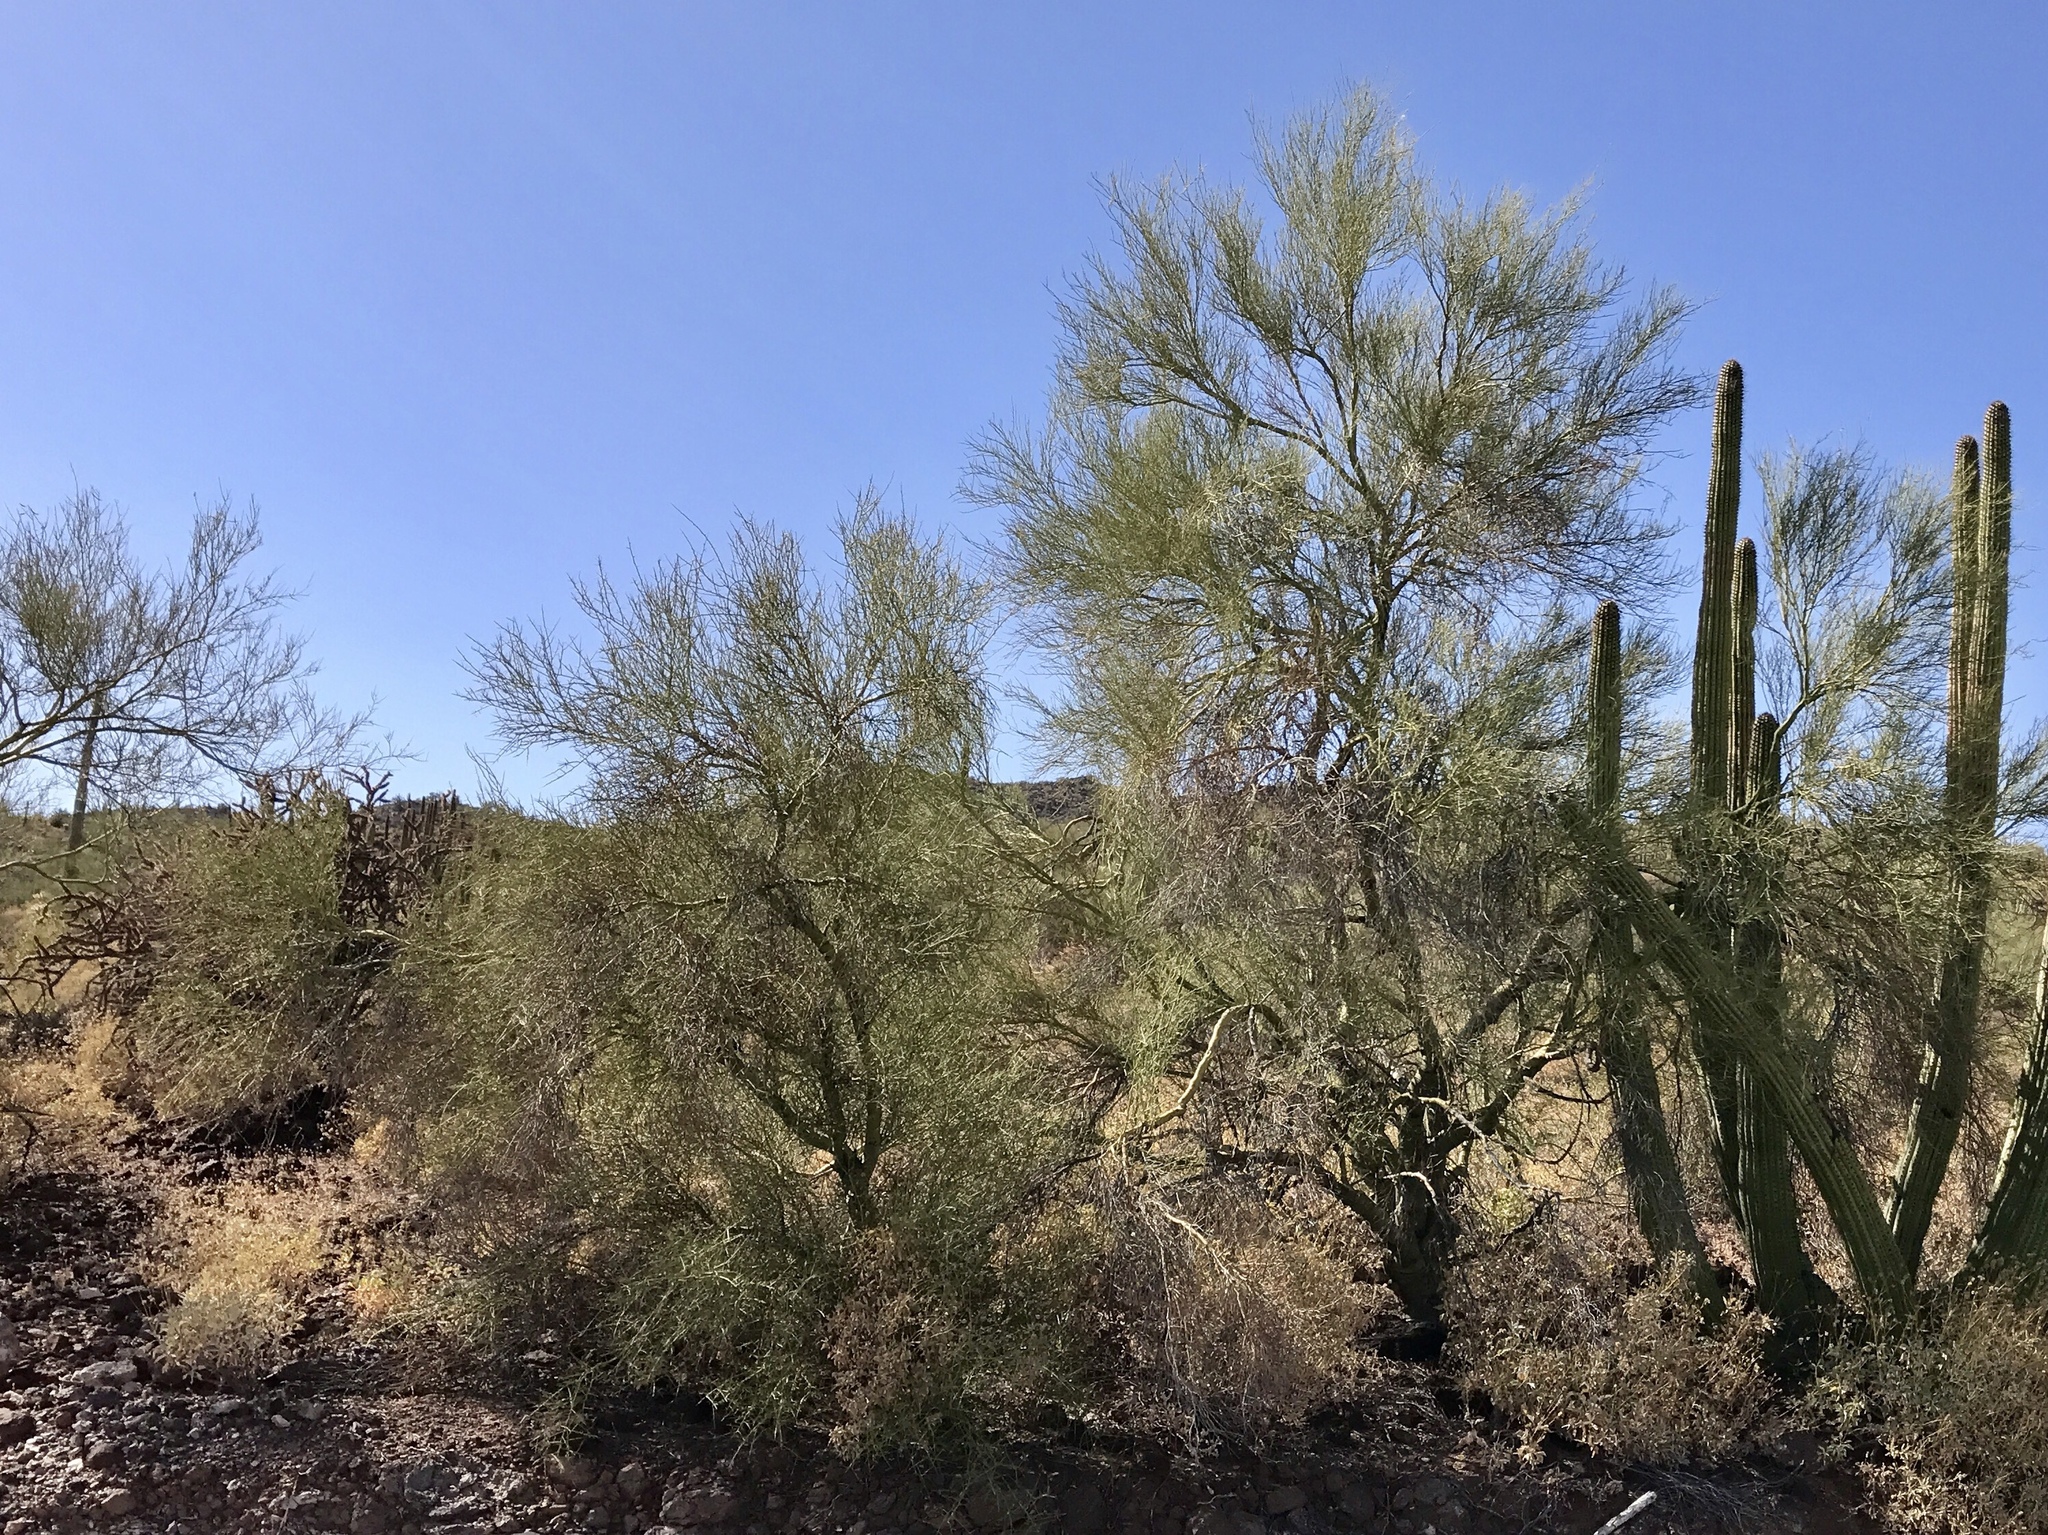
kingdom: Plantae
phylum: Tracheophyta
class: Magnoliopsida
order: Fabales
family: Fabaceae
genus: Parkinsonia
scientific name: Parkinsonia florida
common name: Blue paloverde
